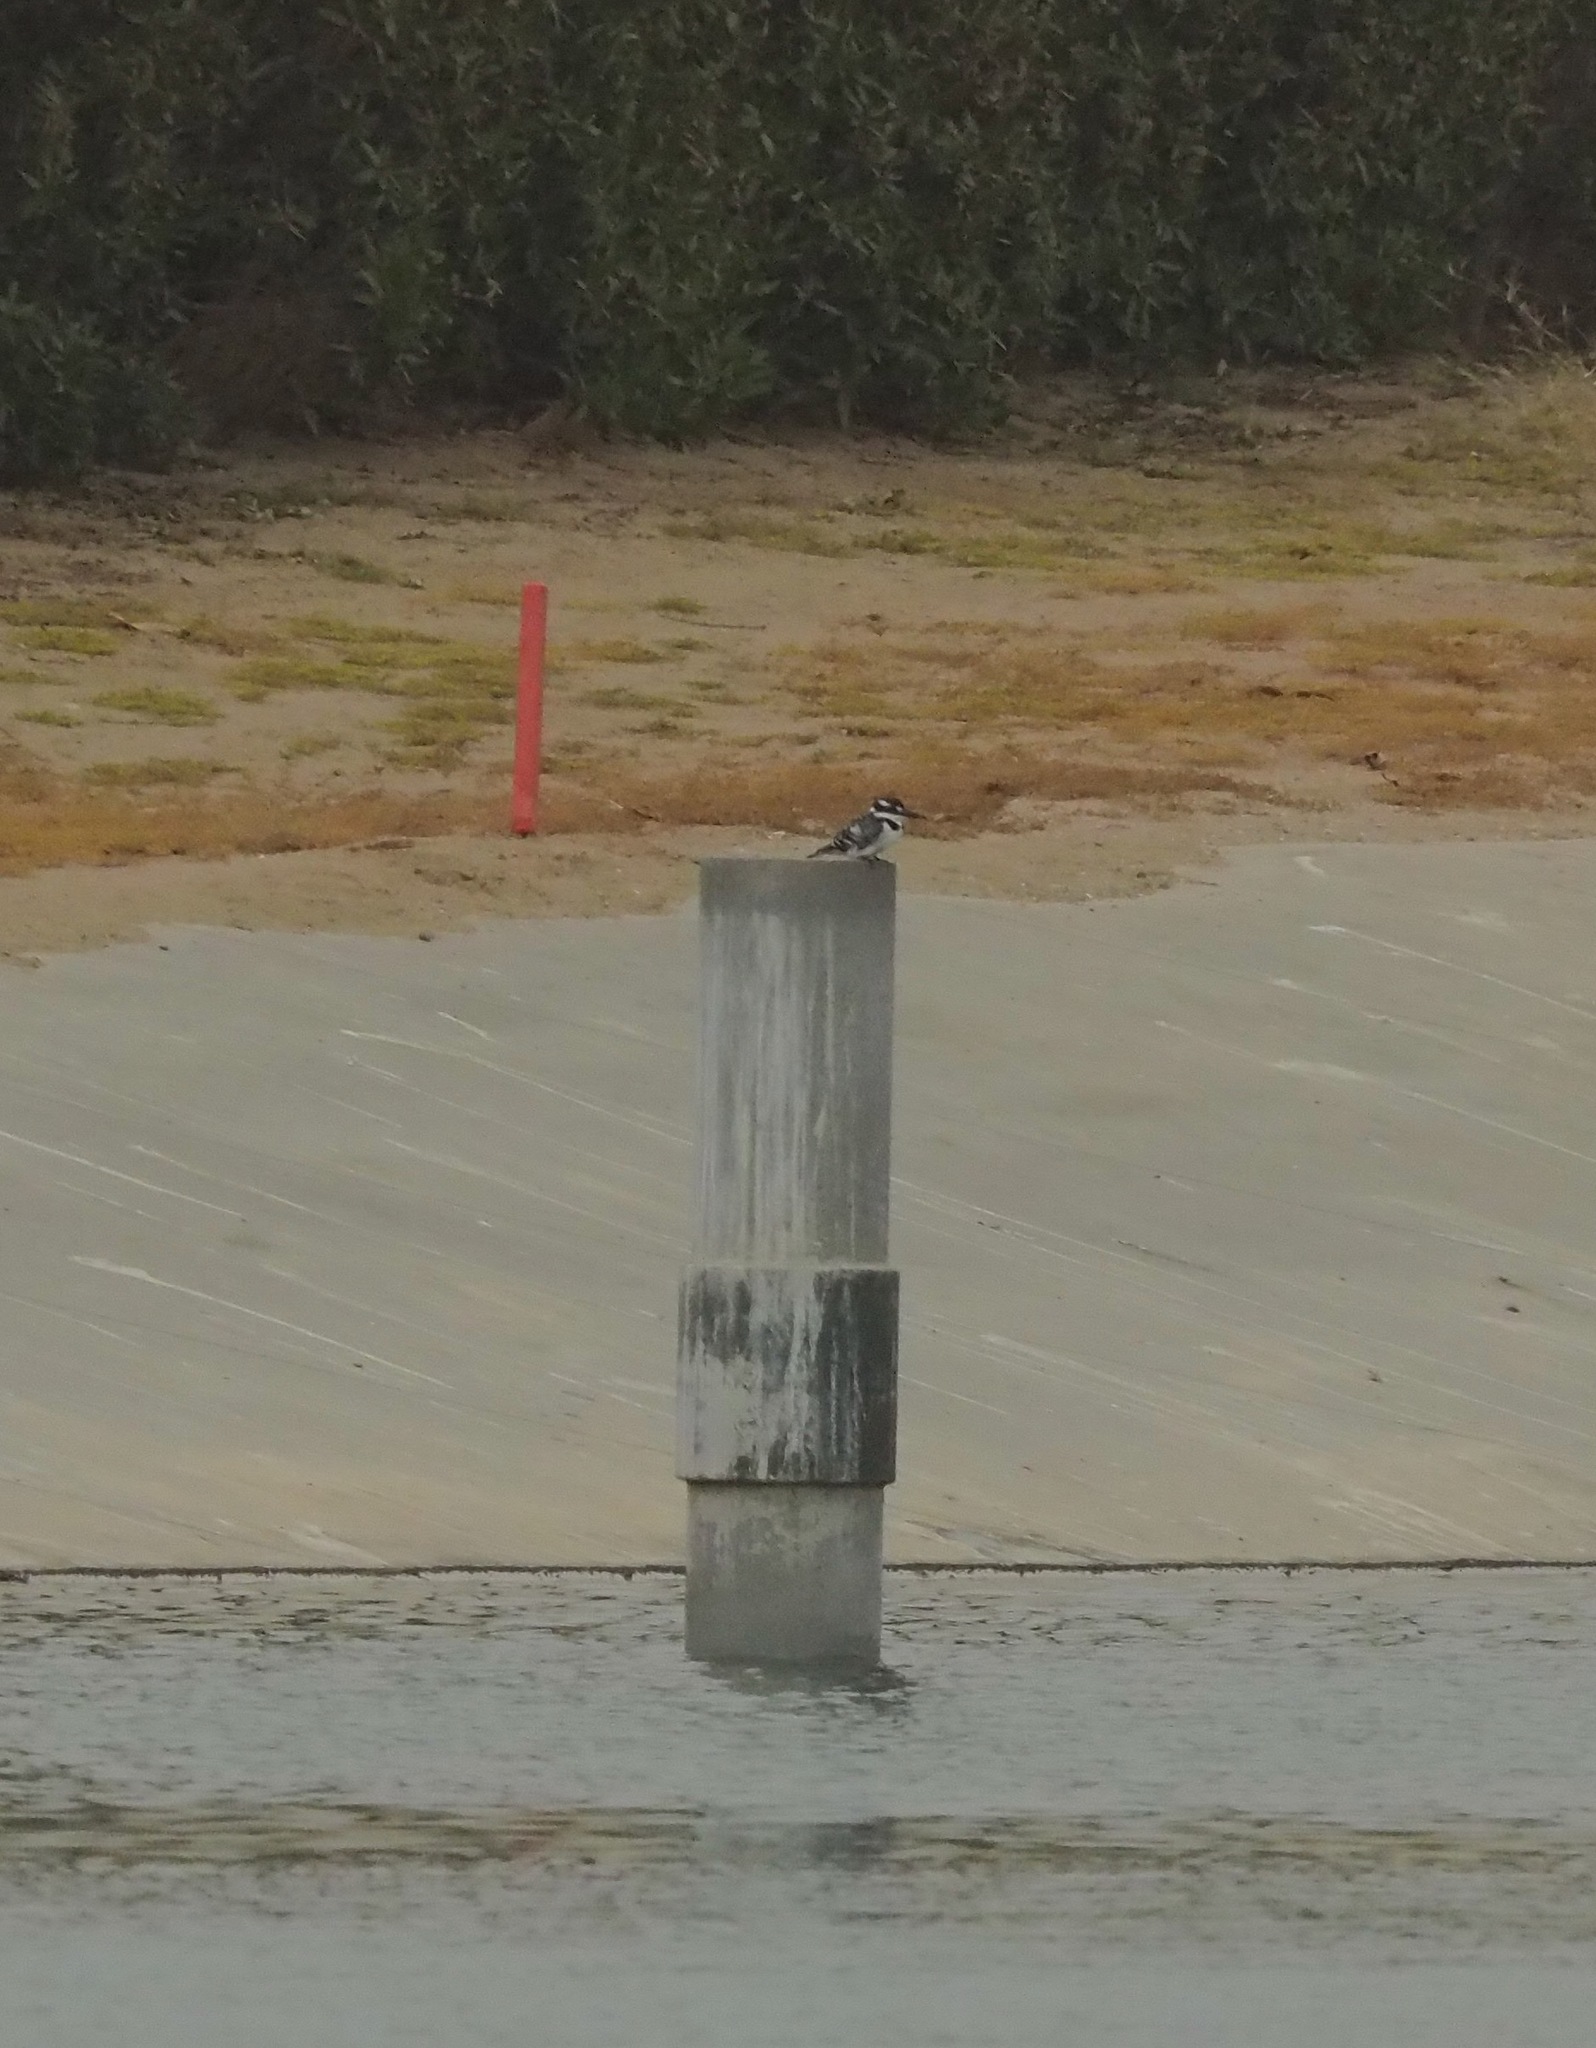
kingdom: Animalia
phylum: Chordata
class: Aves
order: Coraciiformes
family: Alcedinidae
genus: Ceryle
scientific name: Ceryle rudis
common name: Pied kingfisher
